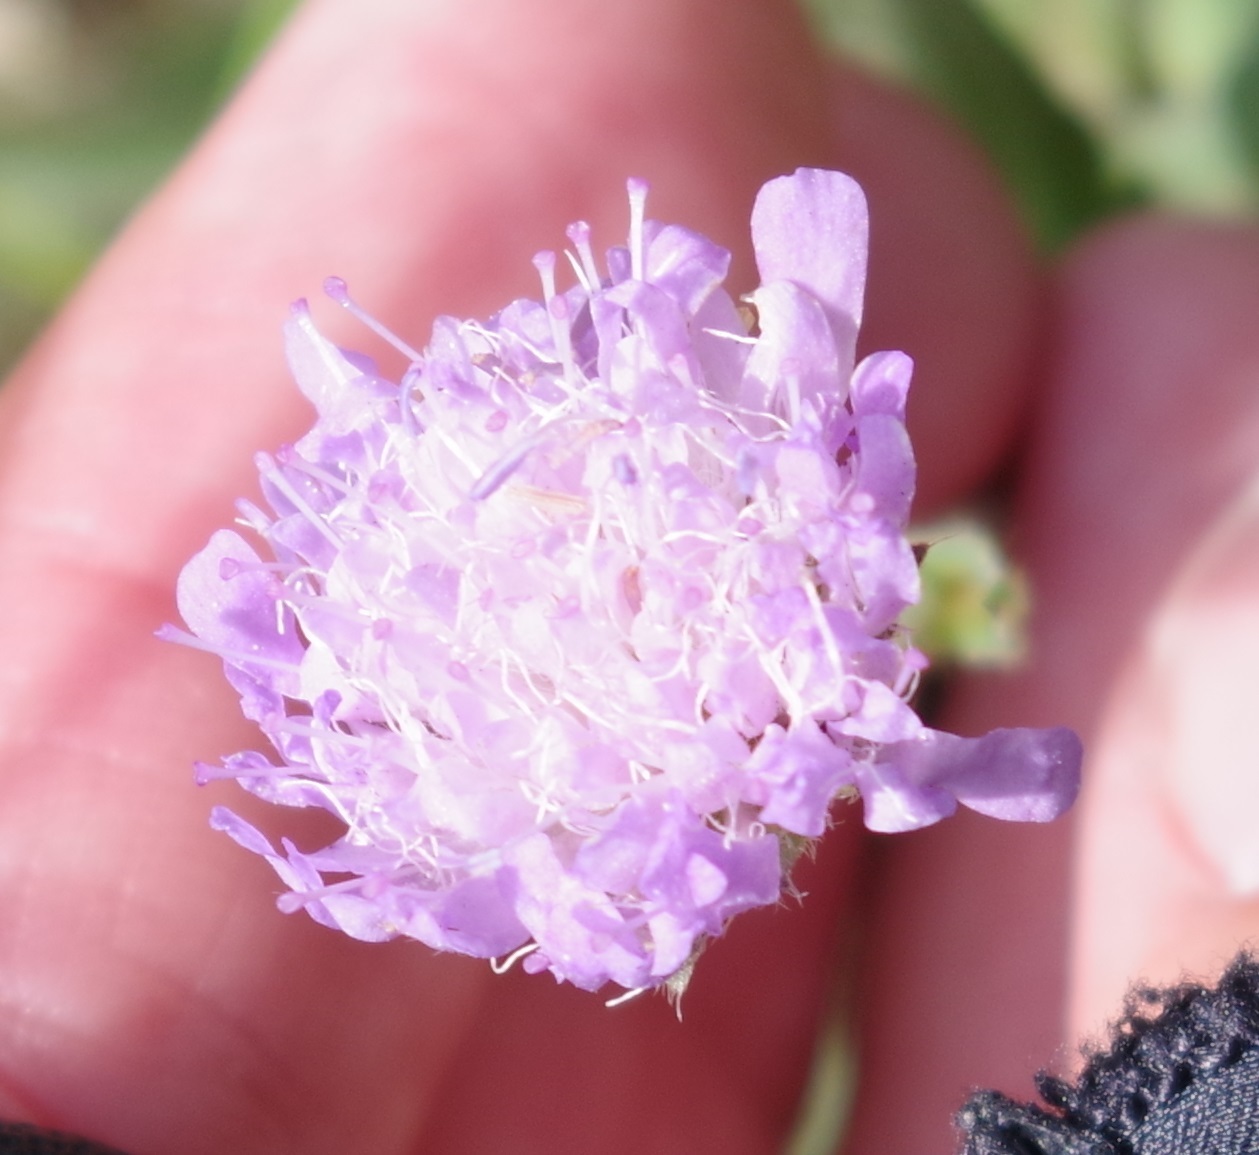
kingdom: Plantae
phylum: Tracheophyta
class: Magnoliopsida
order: Dipsacales
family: Caprifoliaceae
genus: Knautia
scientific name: Knautia arvensis
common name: Field scabiosa
